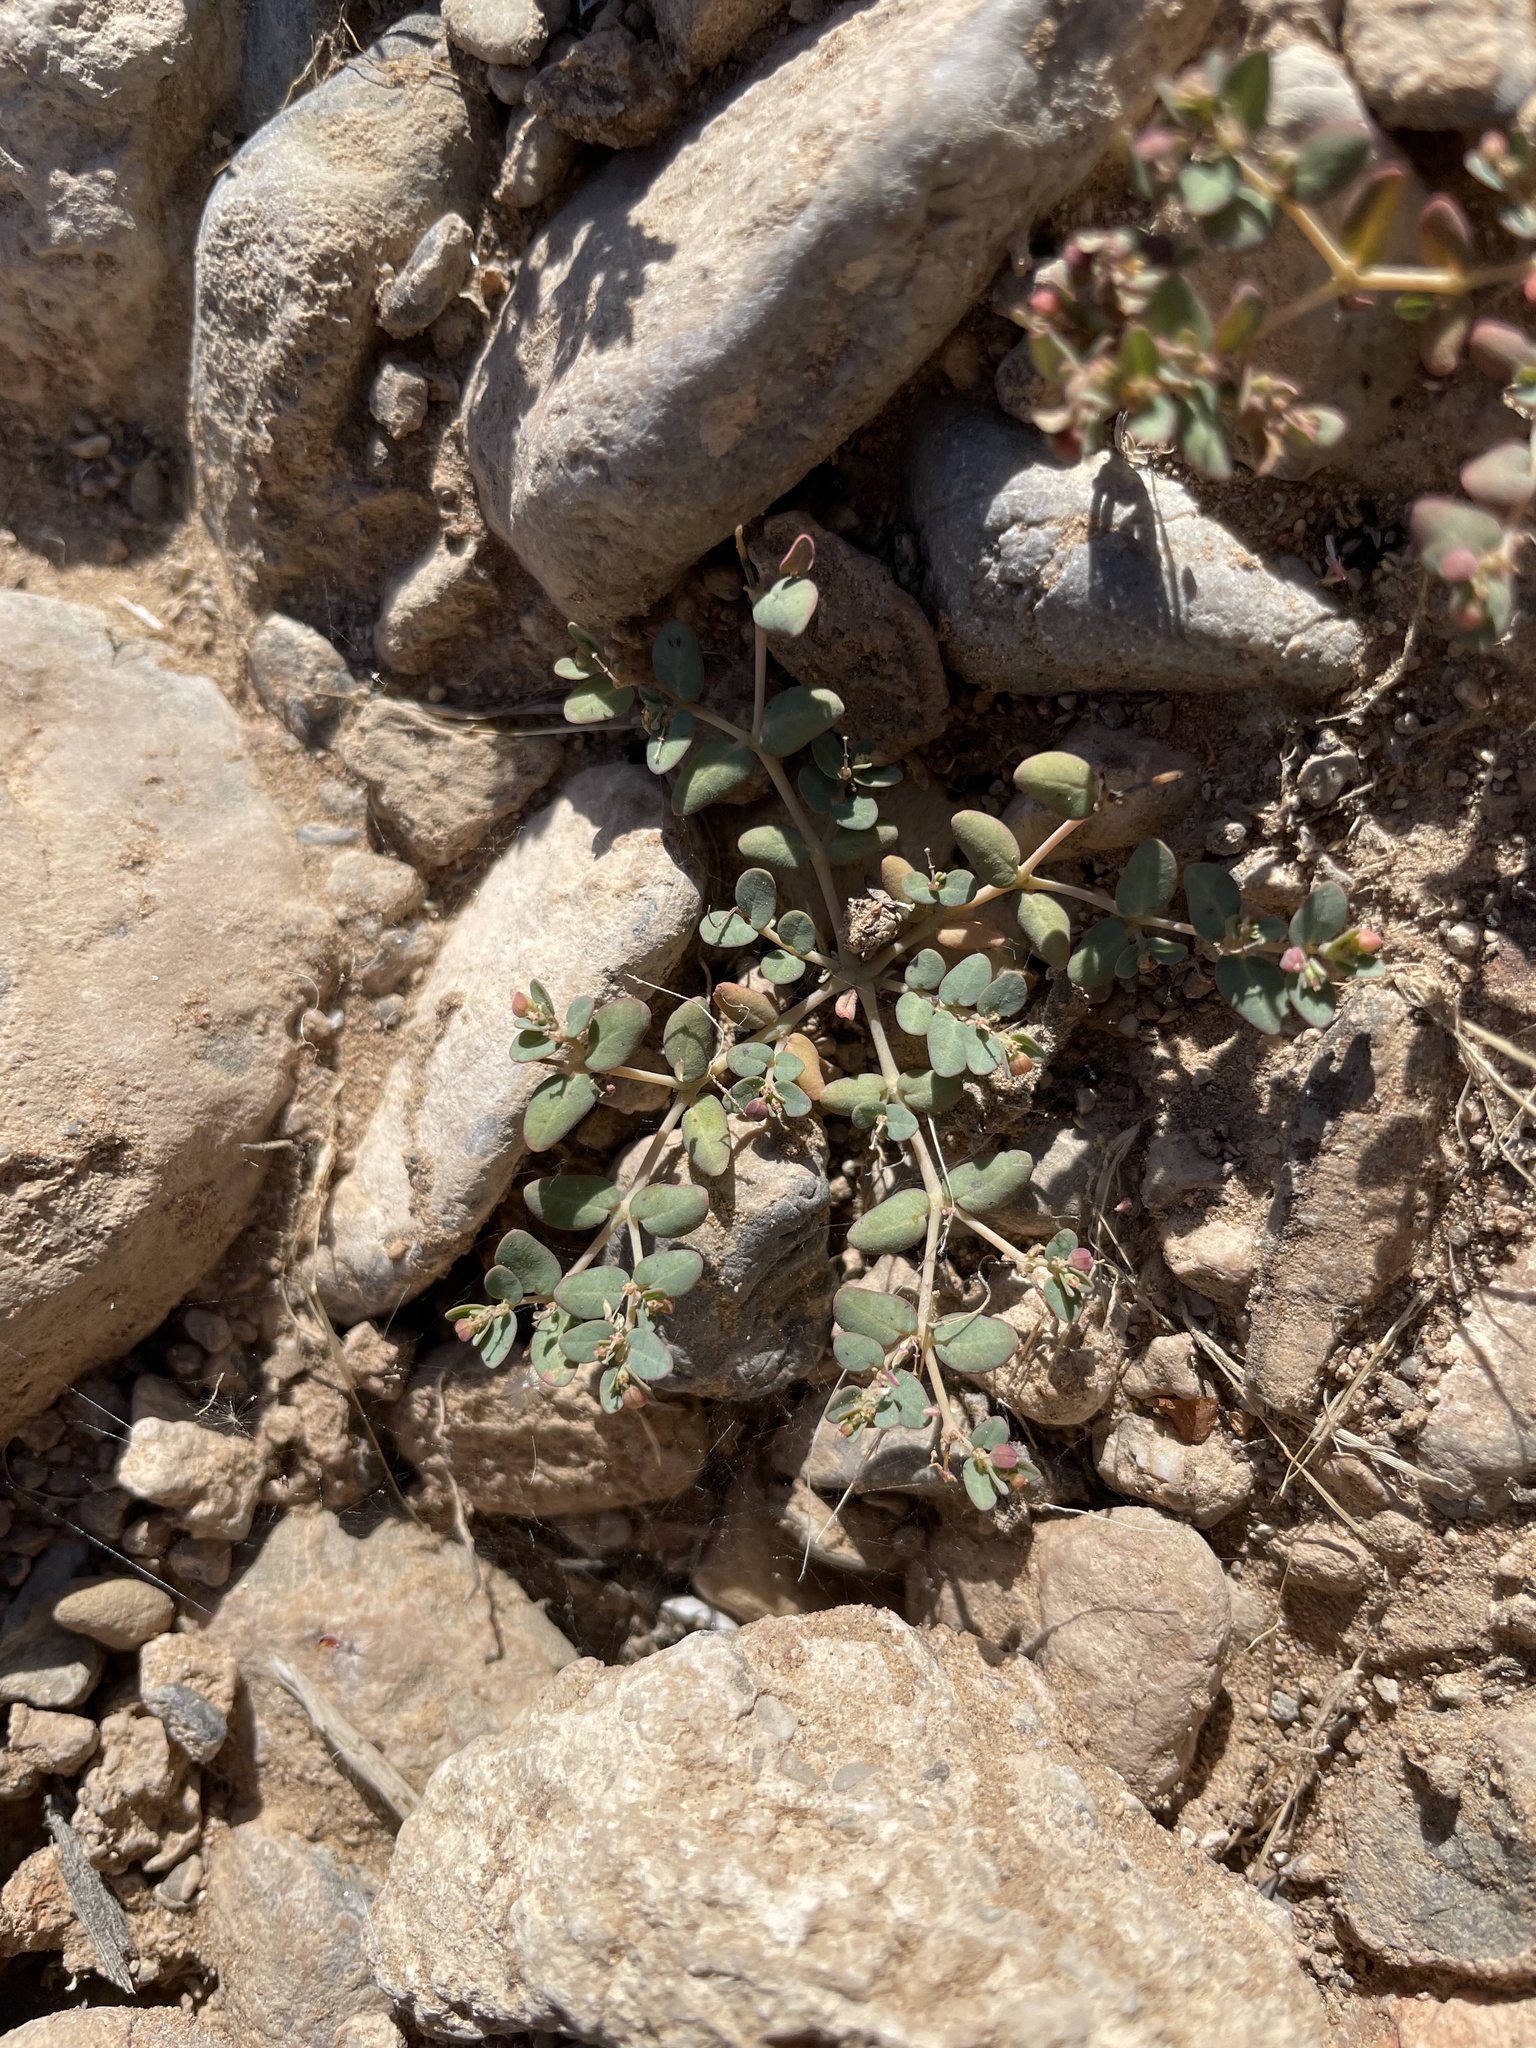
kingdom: Plantae
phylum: Tracheophyta
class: Magnoliopsida
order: Malpighiales
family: Euphorbiaceae
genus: Euphorbia
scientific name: Euphorbia micromera
